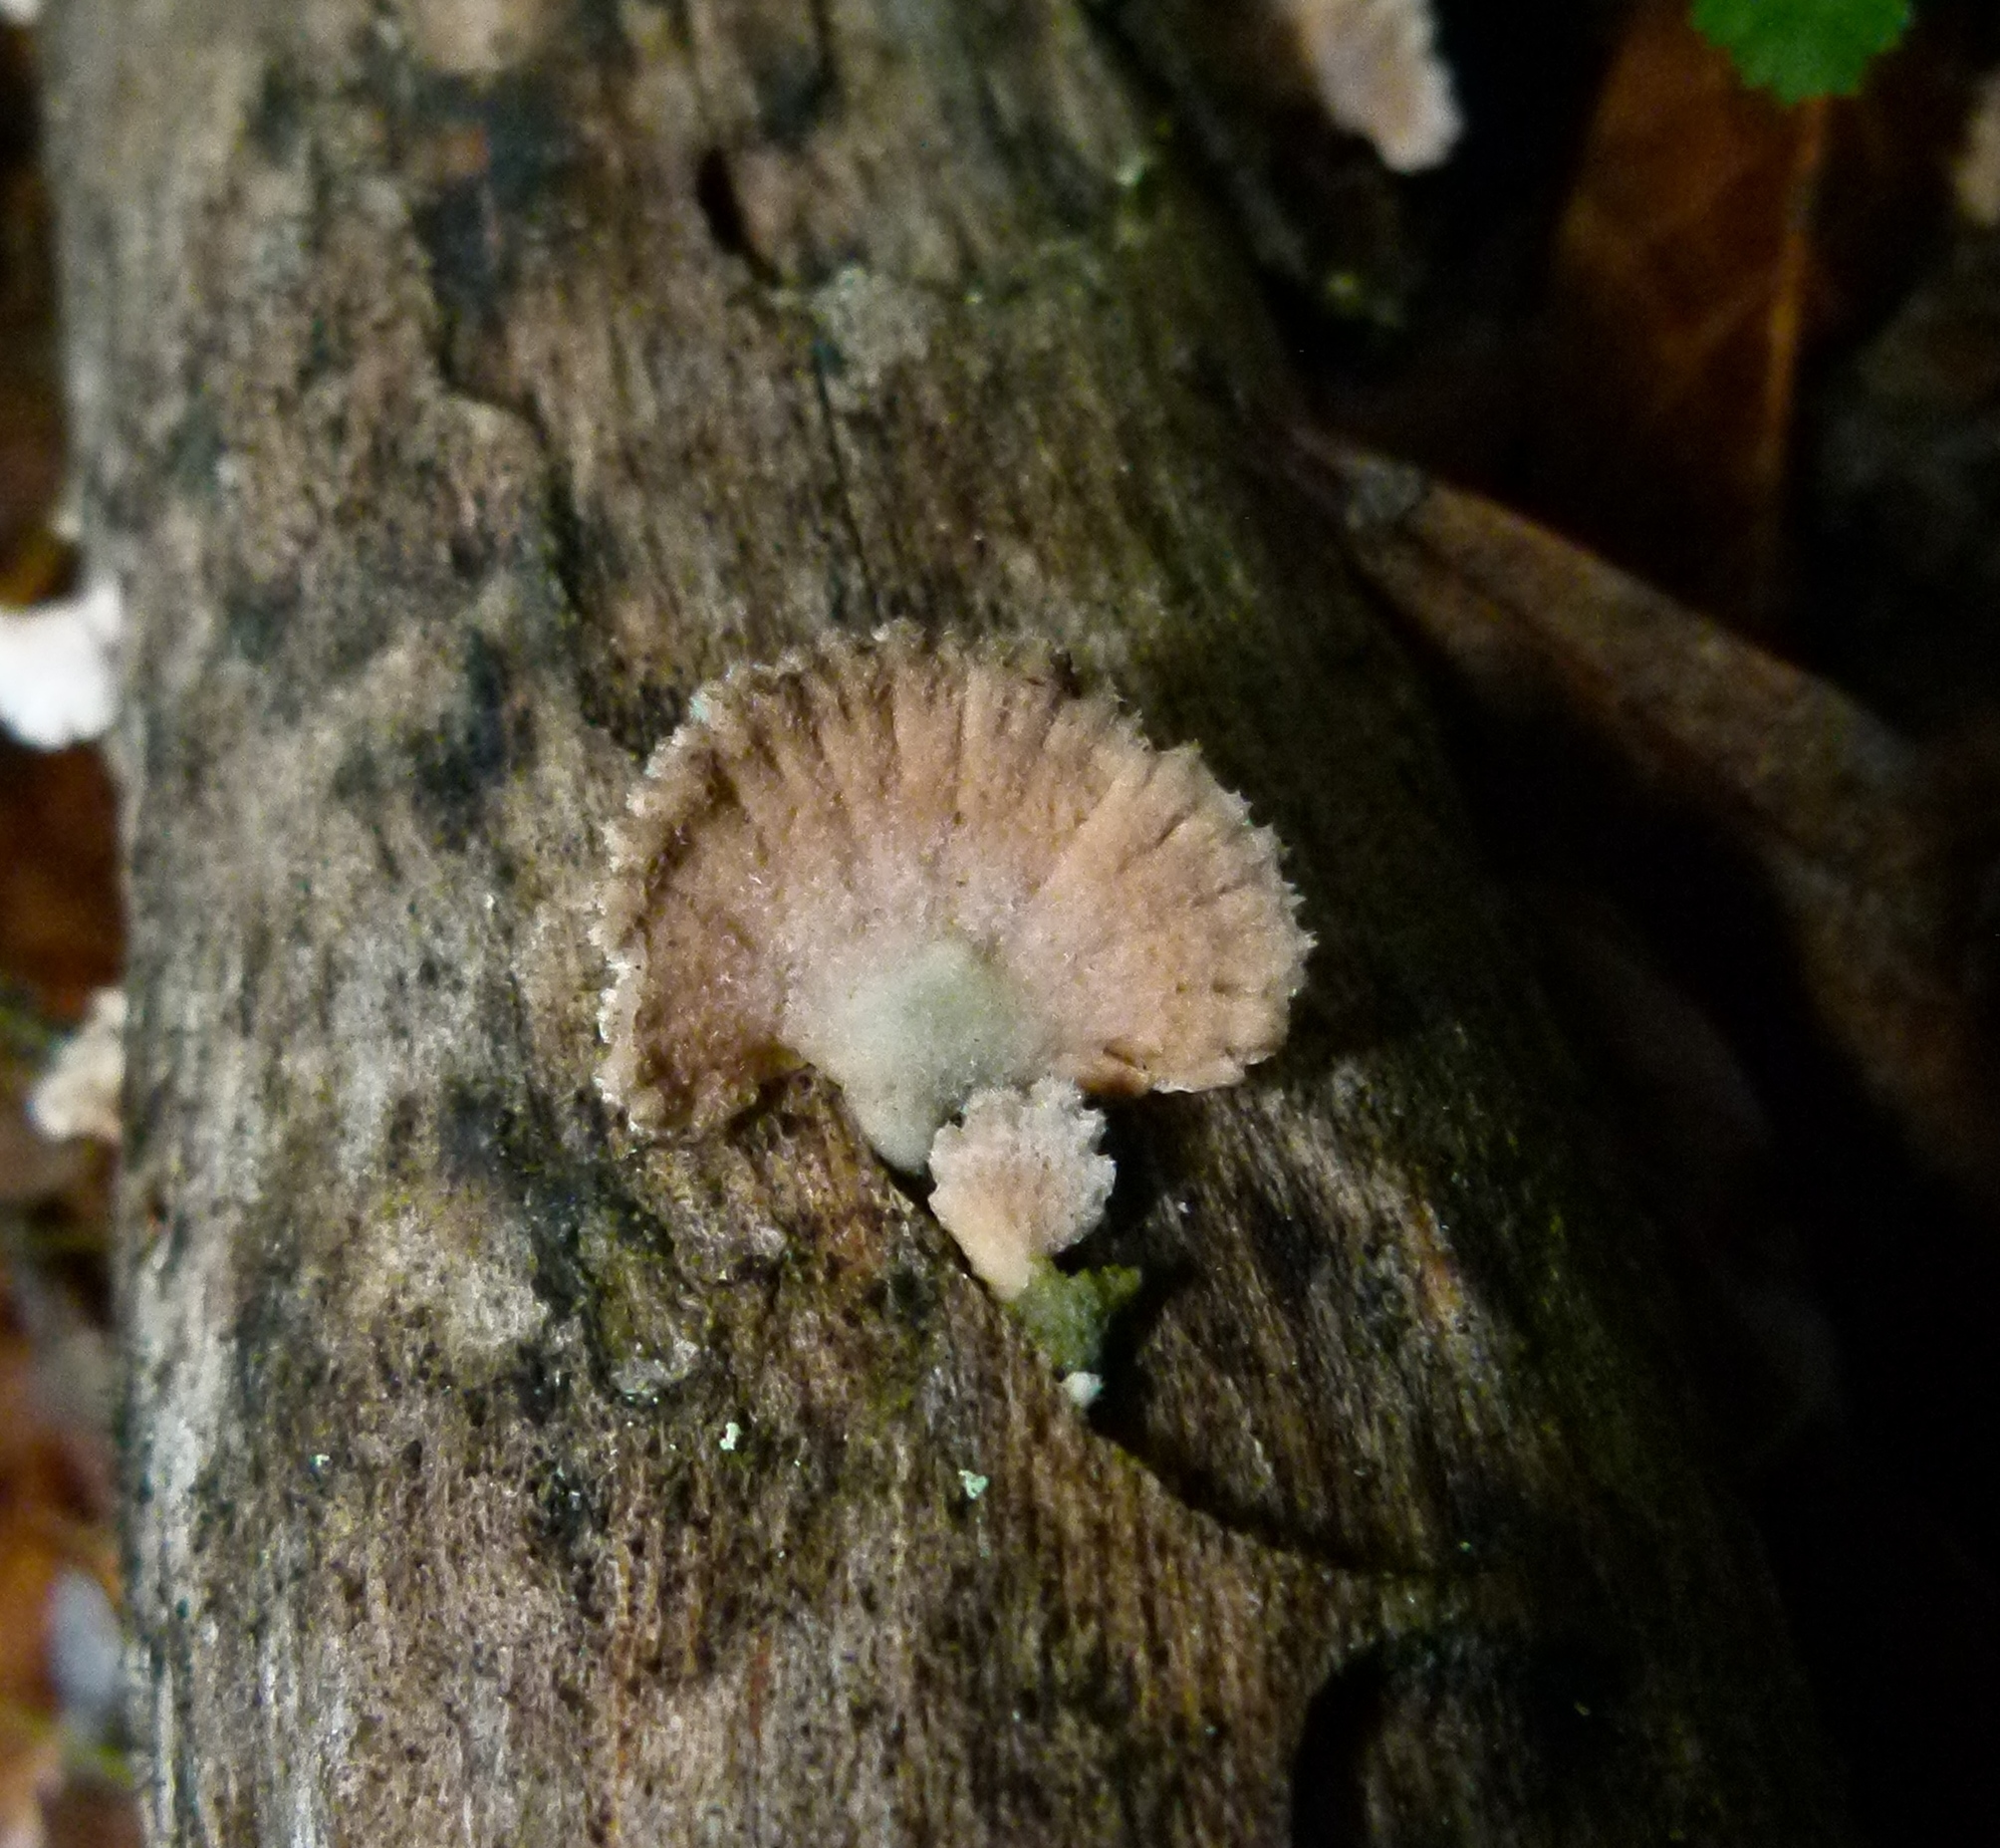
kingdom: Fungi
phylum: Basidiomycota
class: Agaricomycetes
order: Agaricales
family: Schizophyllaceae
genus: Schizophyllum
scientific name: Schizophyllum commune
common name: Common porecrust
